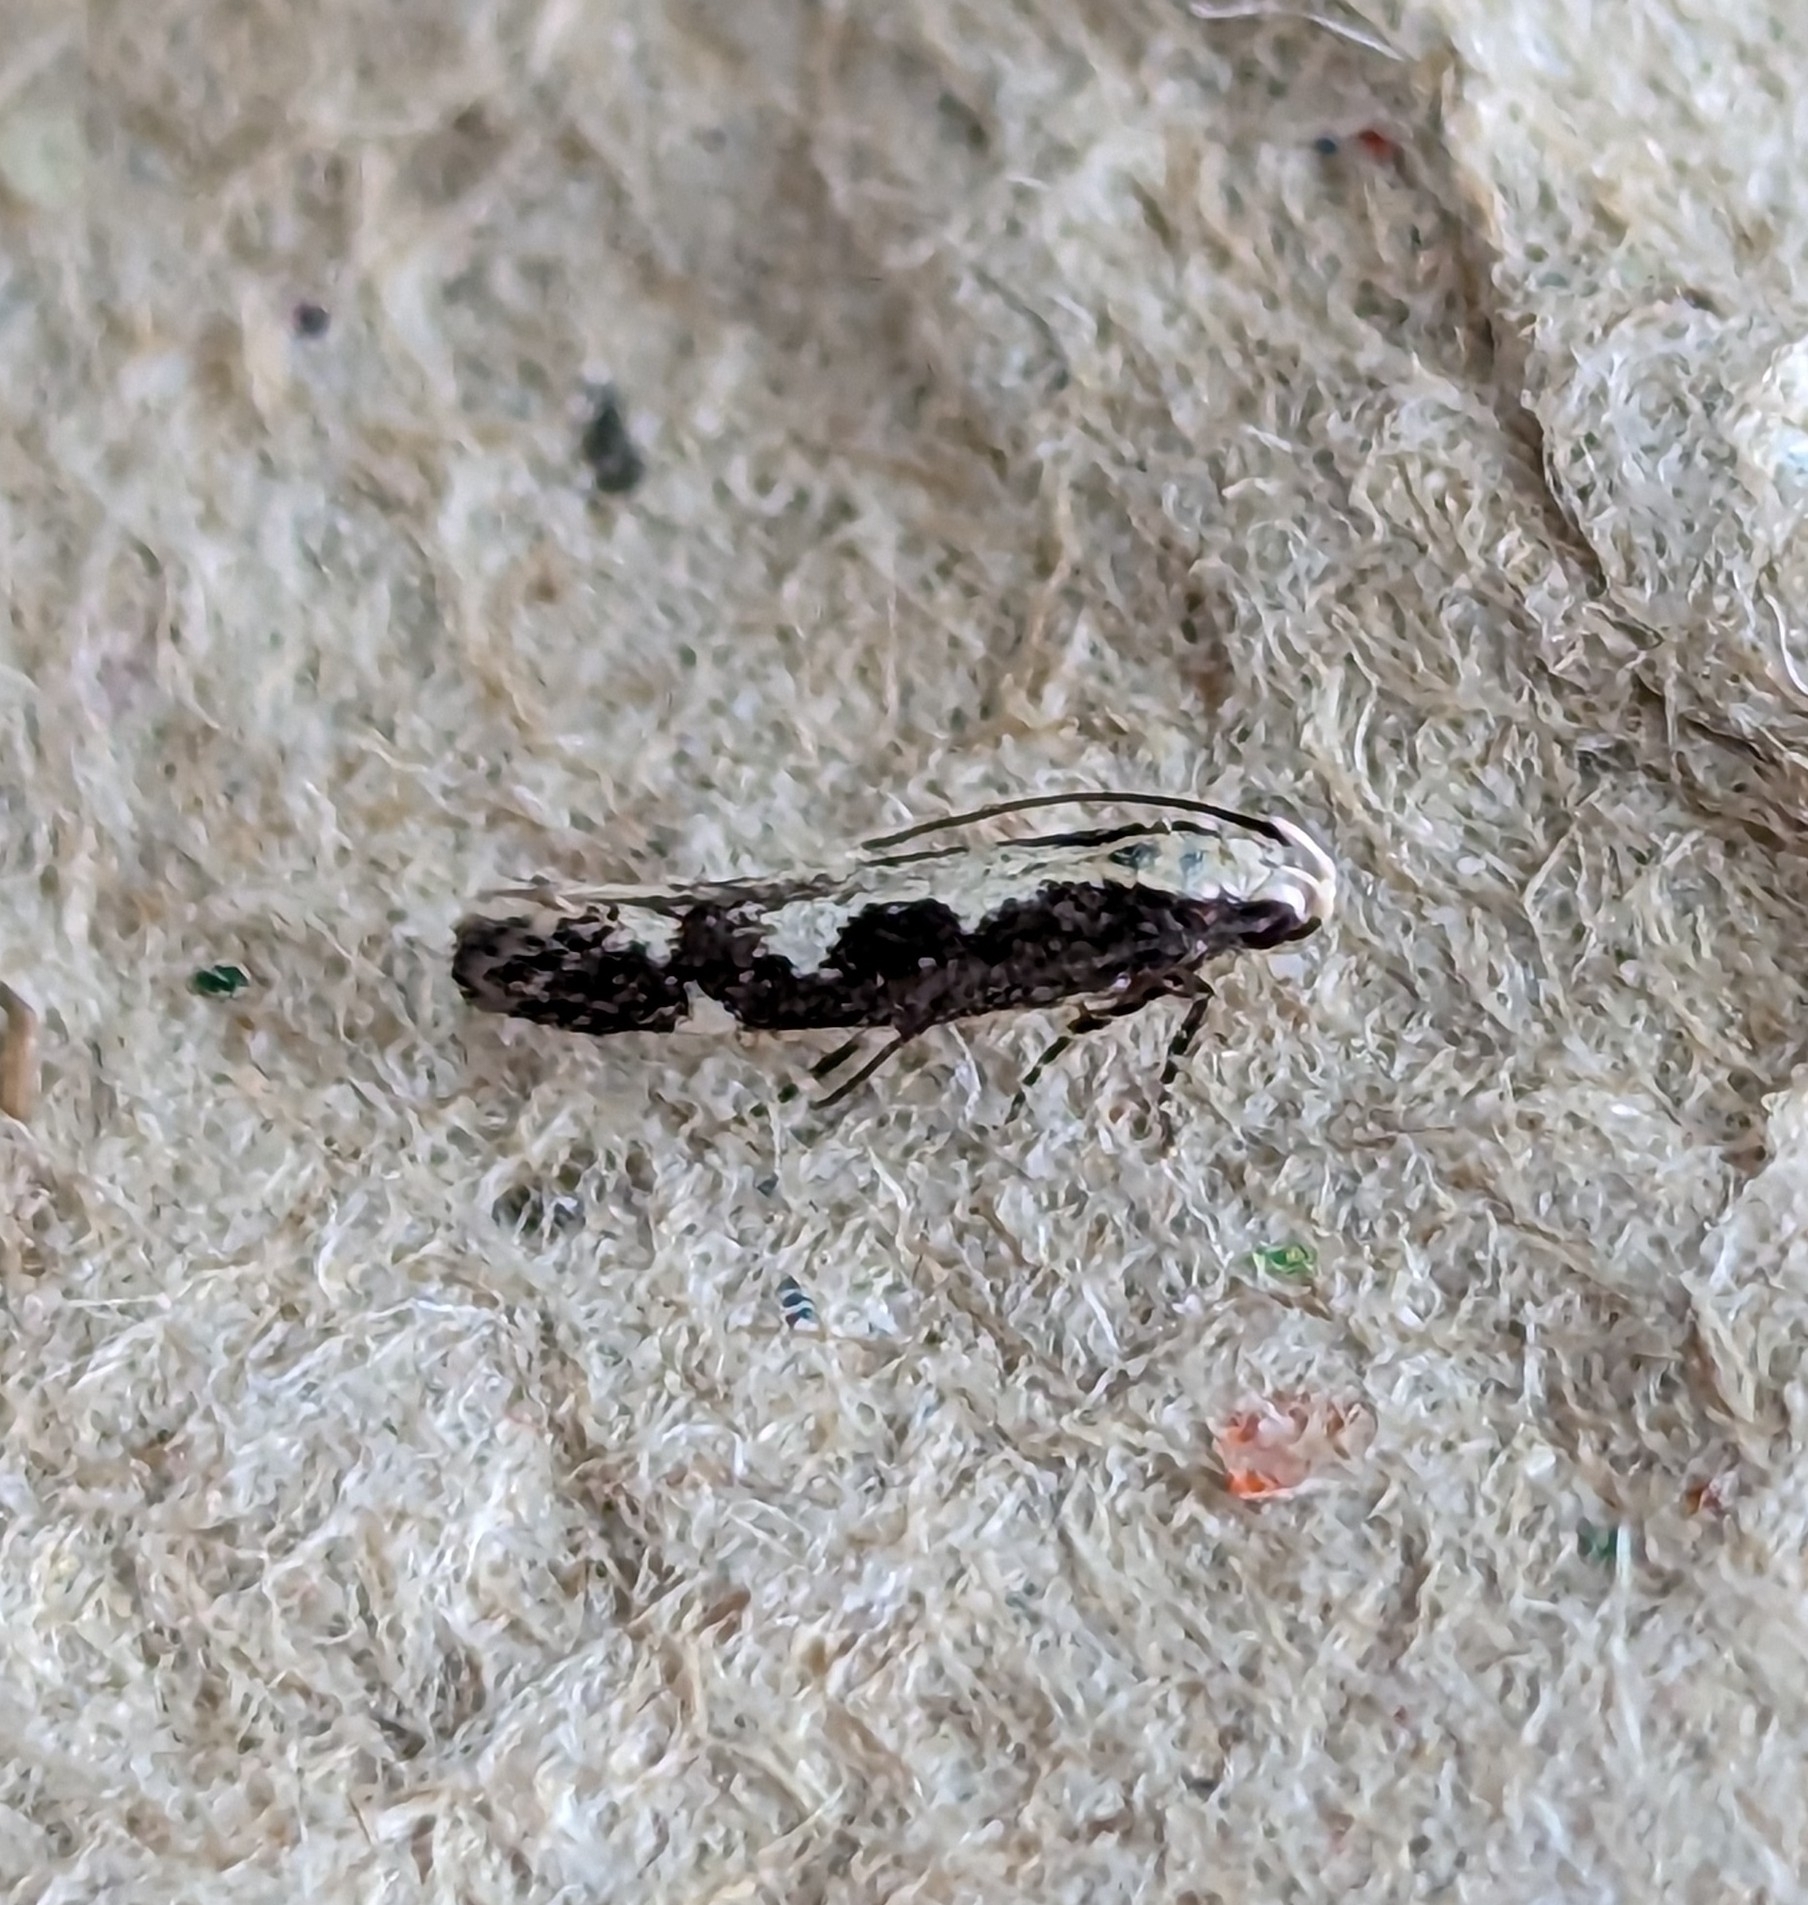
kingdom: Animalia
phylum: Arthropoda
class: Insecta
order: Lepidoptera
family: Gelechiidae
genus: Agnippe
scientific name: Agnippe prunifoliella
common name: Skunk twirler
